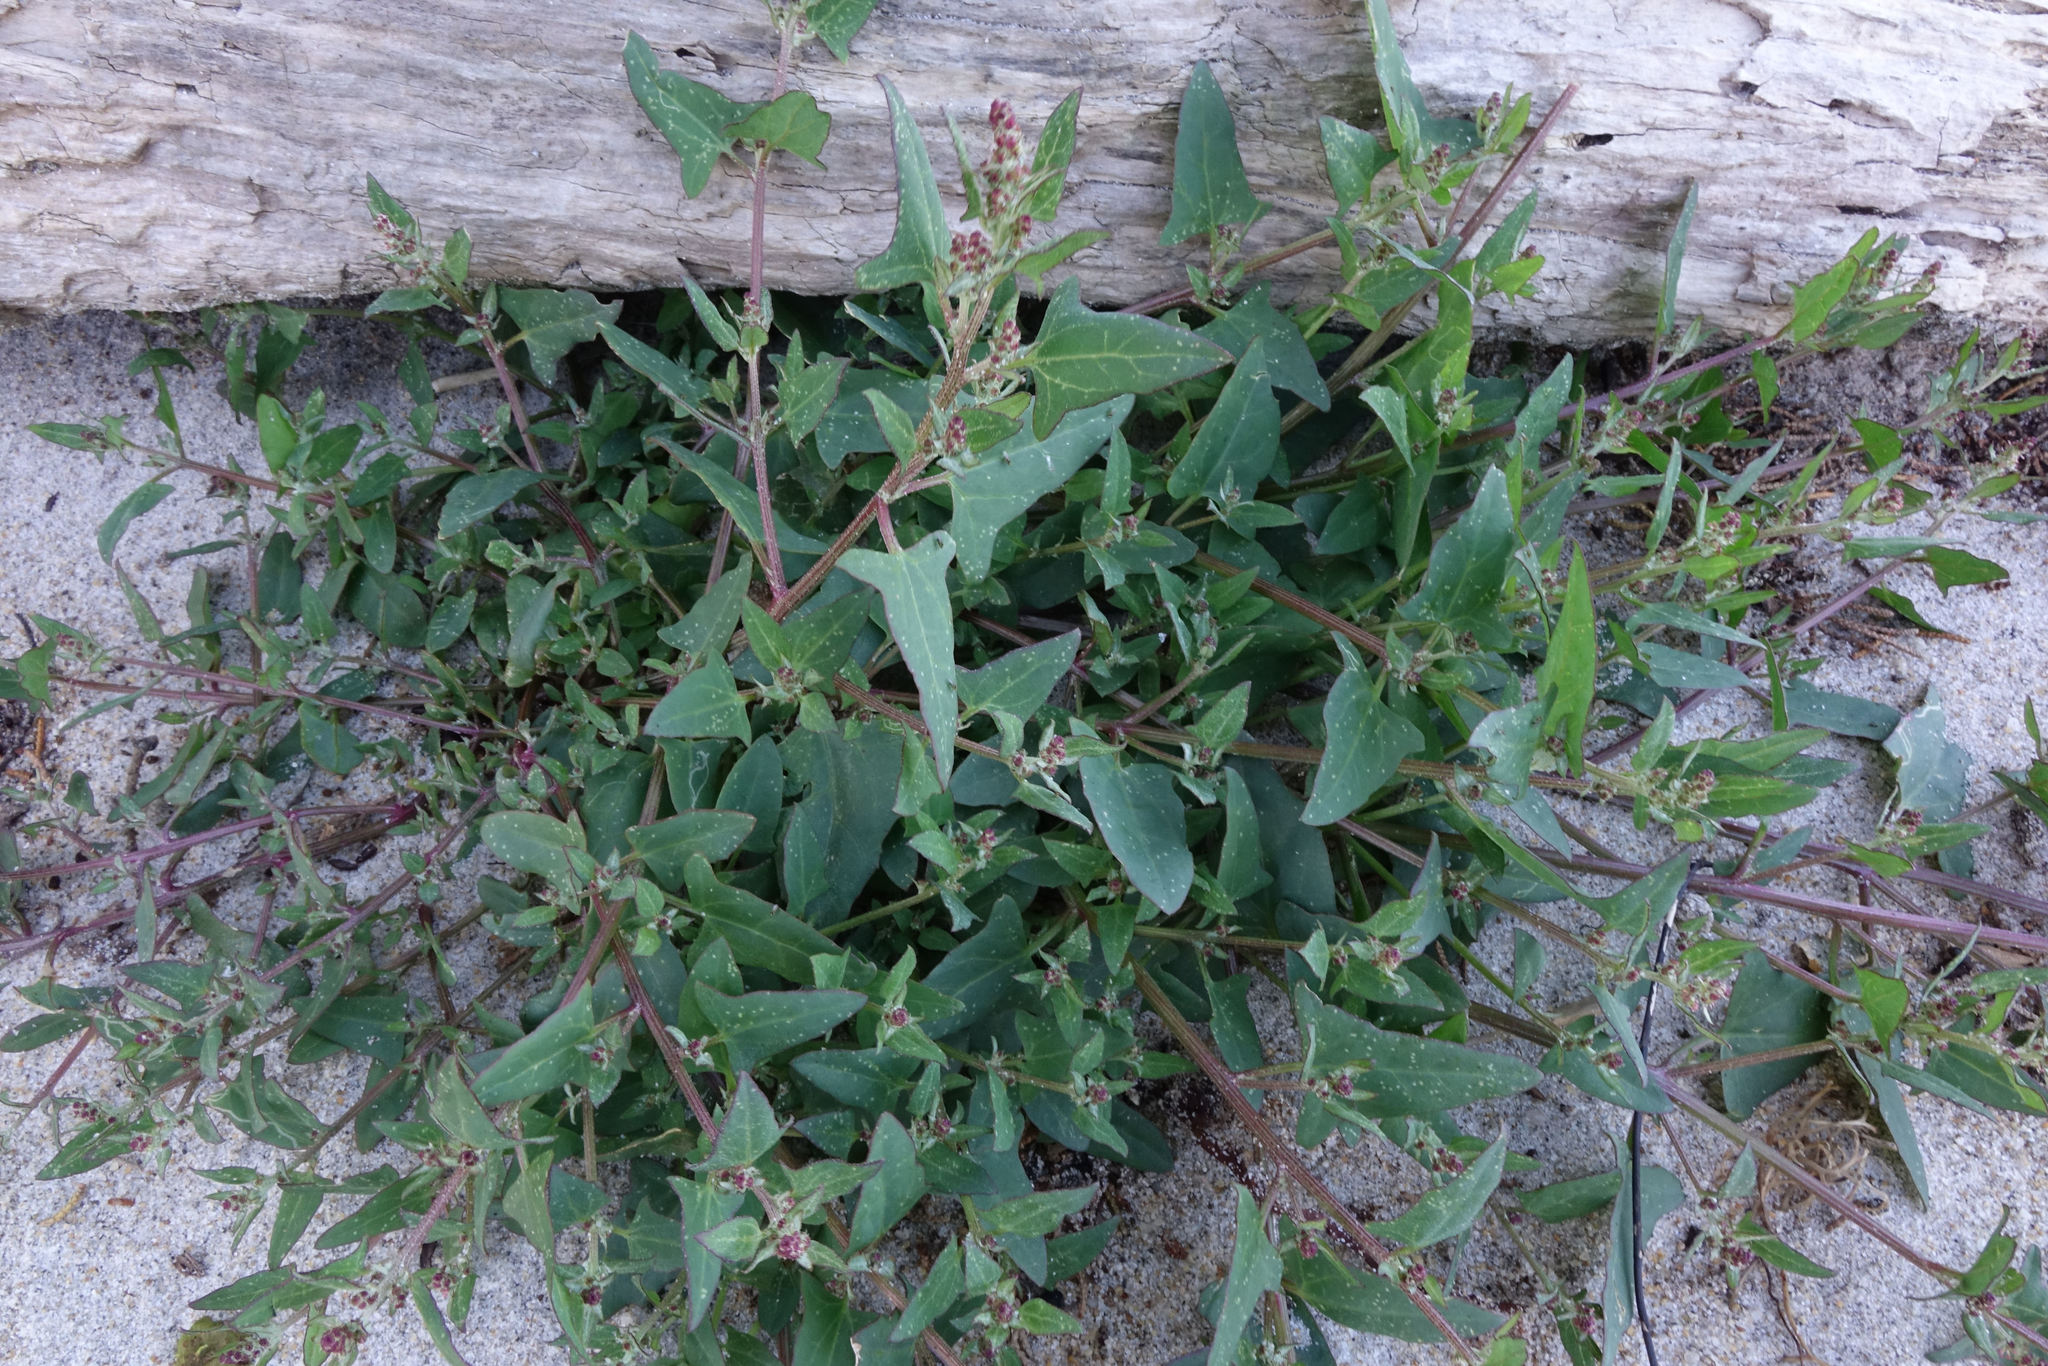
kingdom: Plantae
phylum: Tracheophyta
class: Magnoliopsida
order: Caryophyllales
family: Amaranthaceae
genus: Atriplex
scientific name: Atriplex prostrata
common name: Spear-leaved orache
